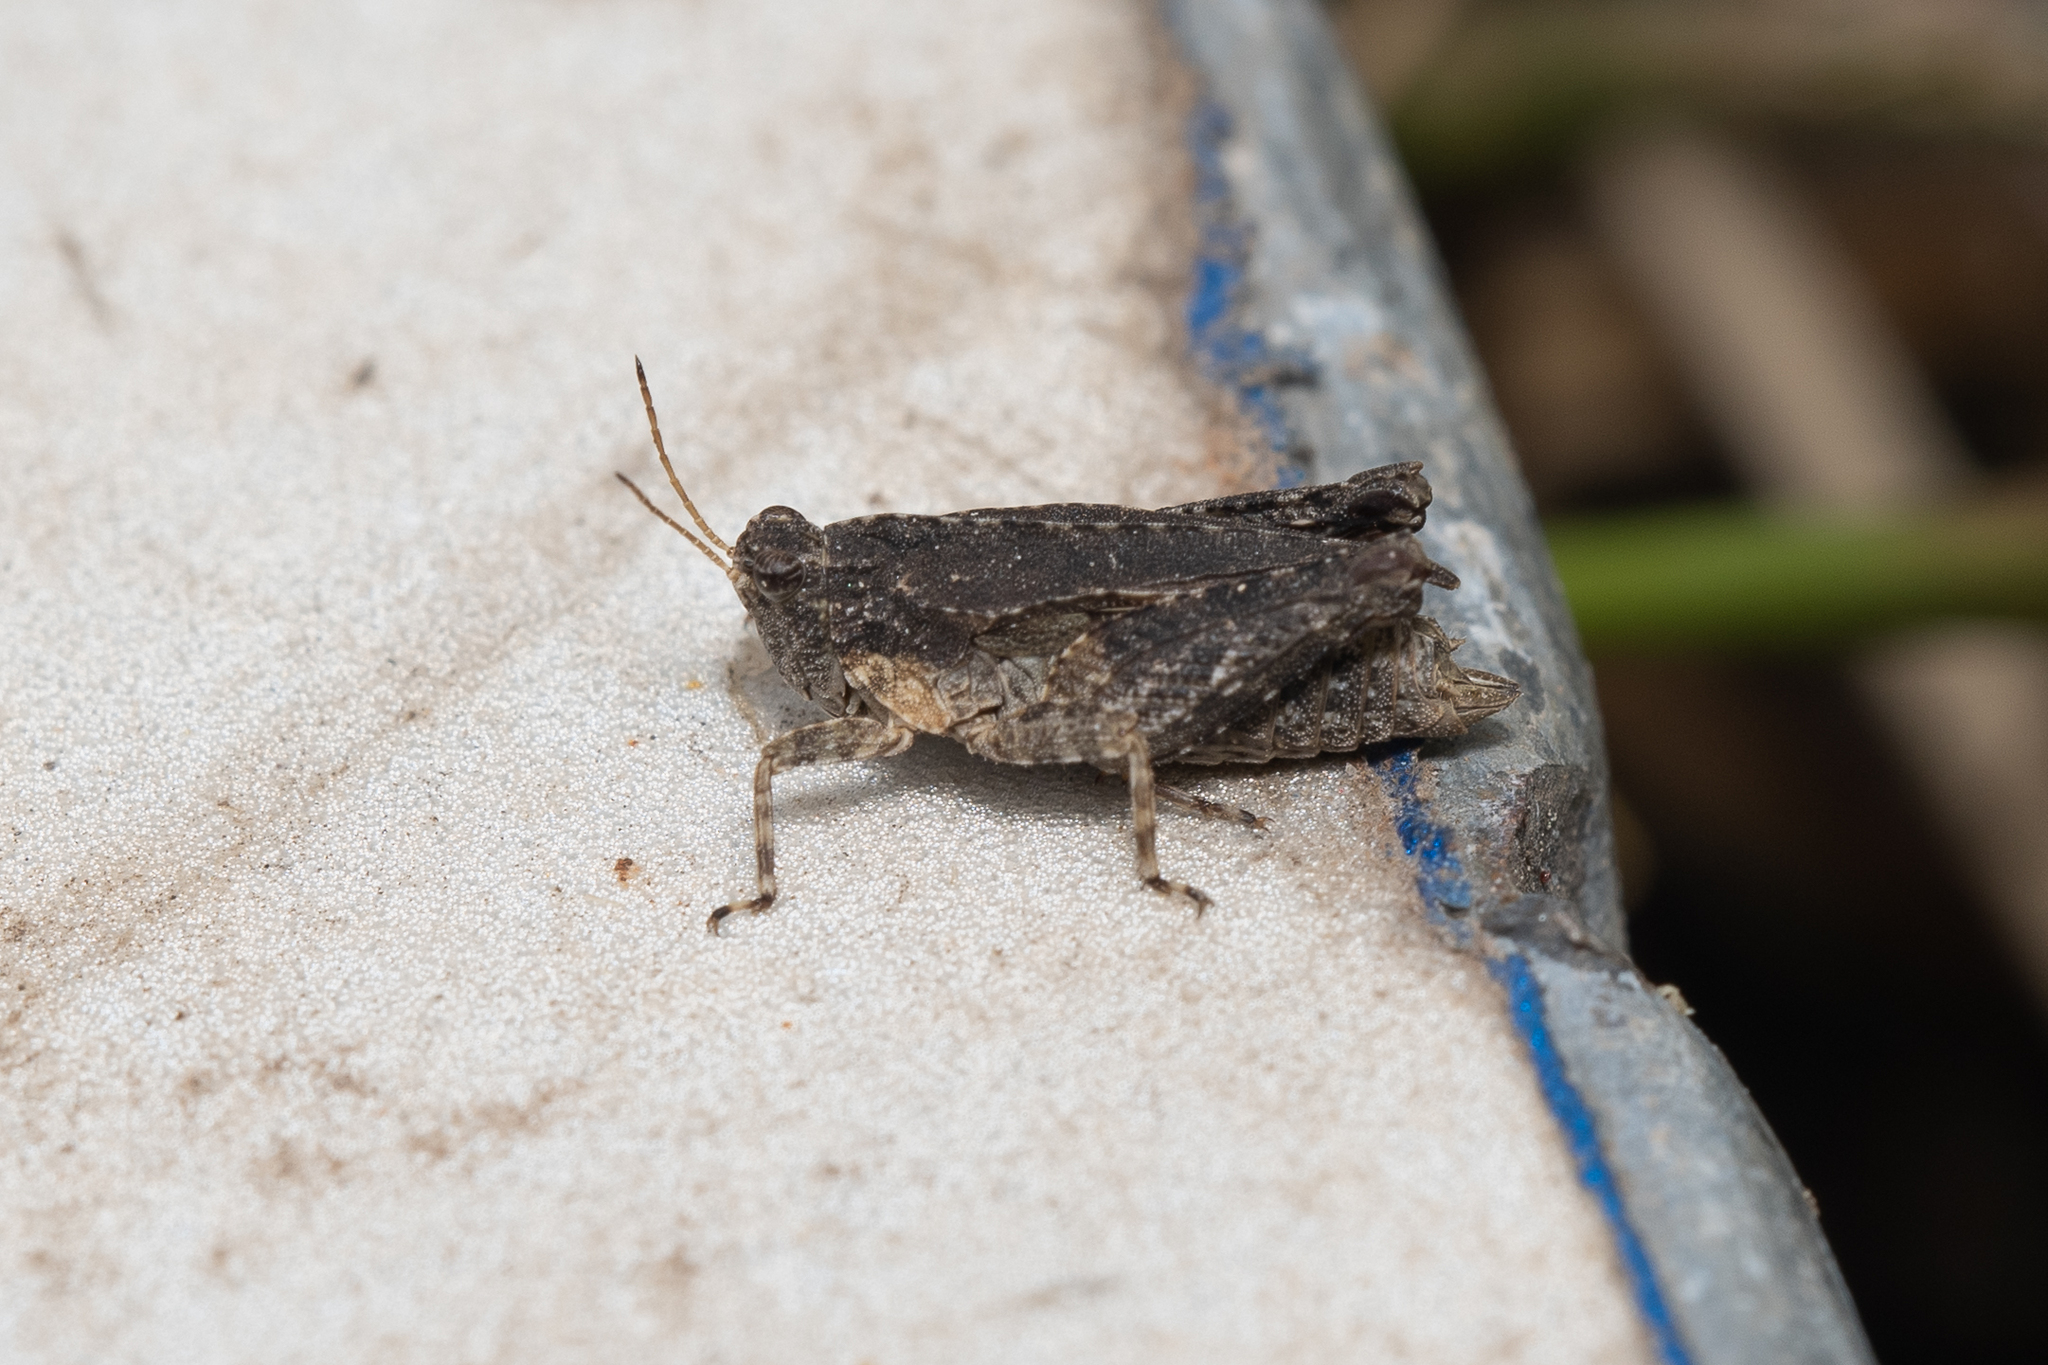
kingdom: Animalia
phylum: Arthropoda
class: Insecta
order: Orthoptera
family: Tetrigidae
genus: Tetrix
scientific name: Tetrix tenuicornis
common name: Long-horned groundhopper
